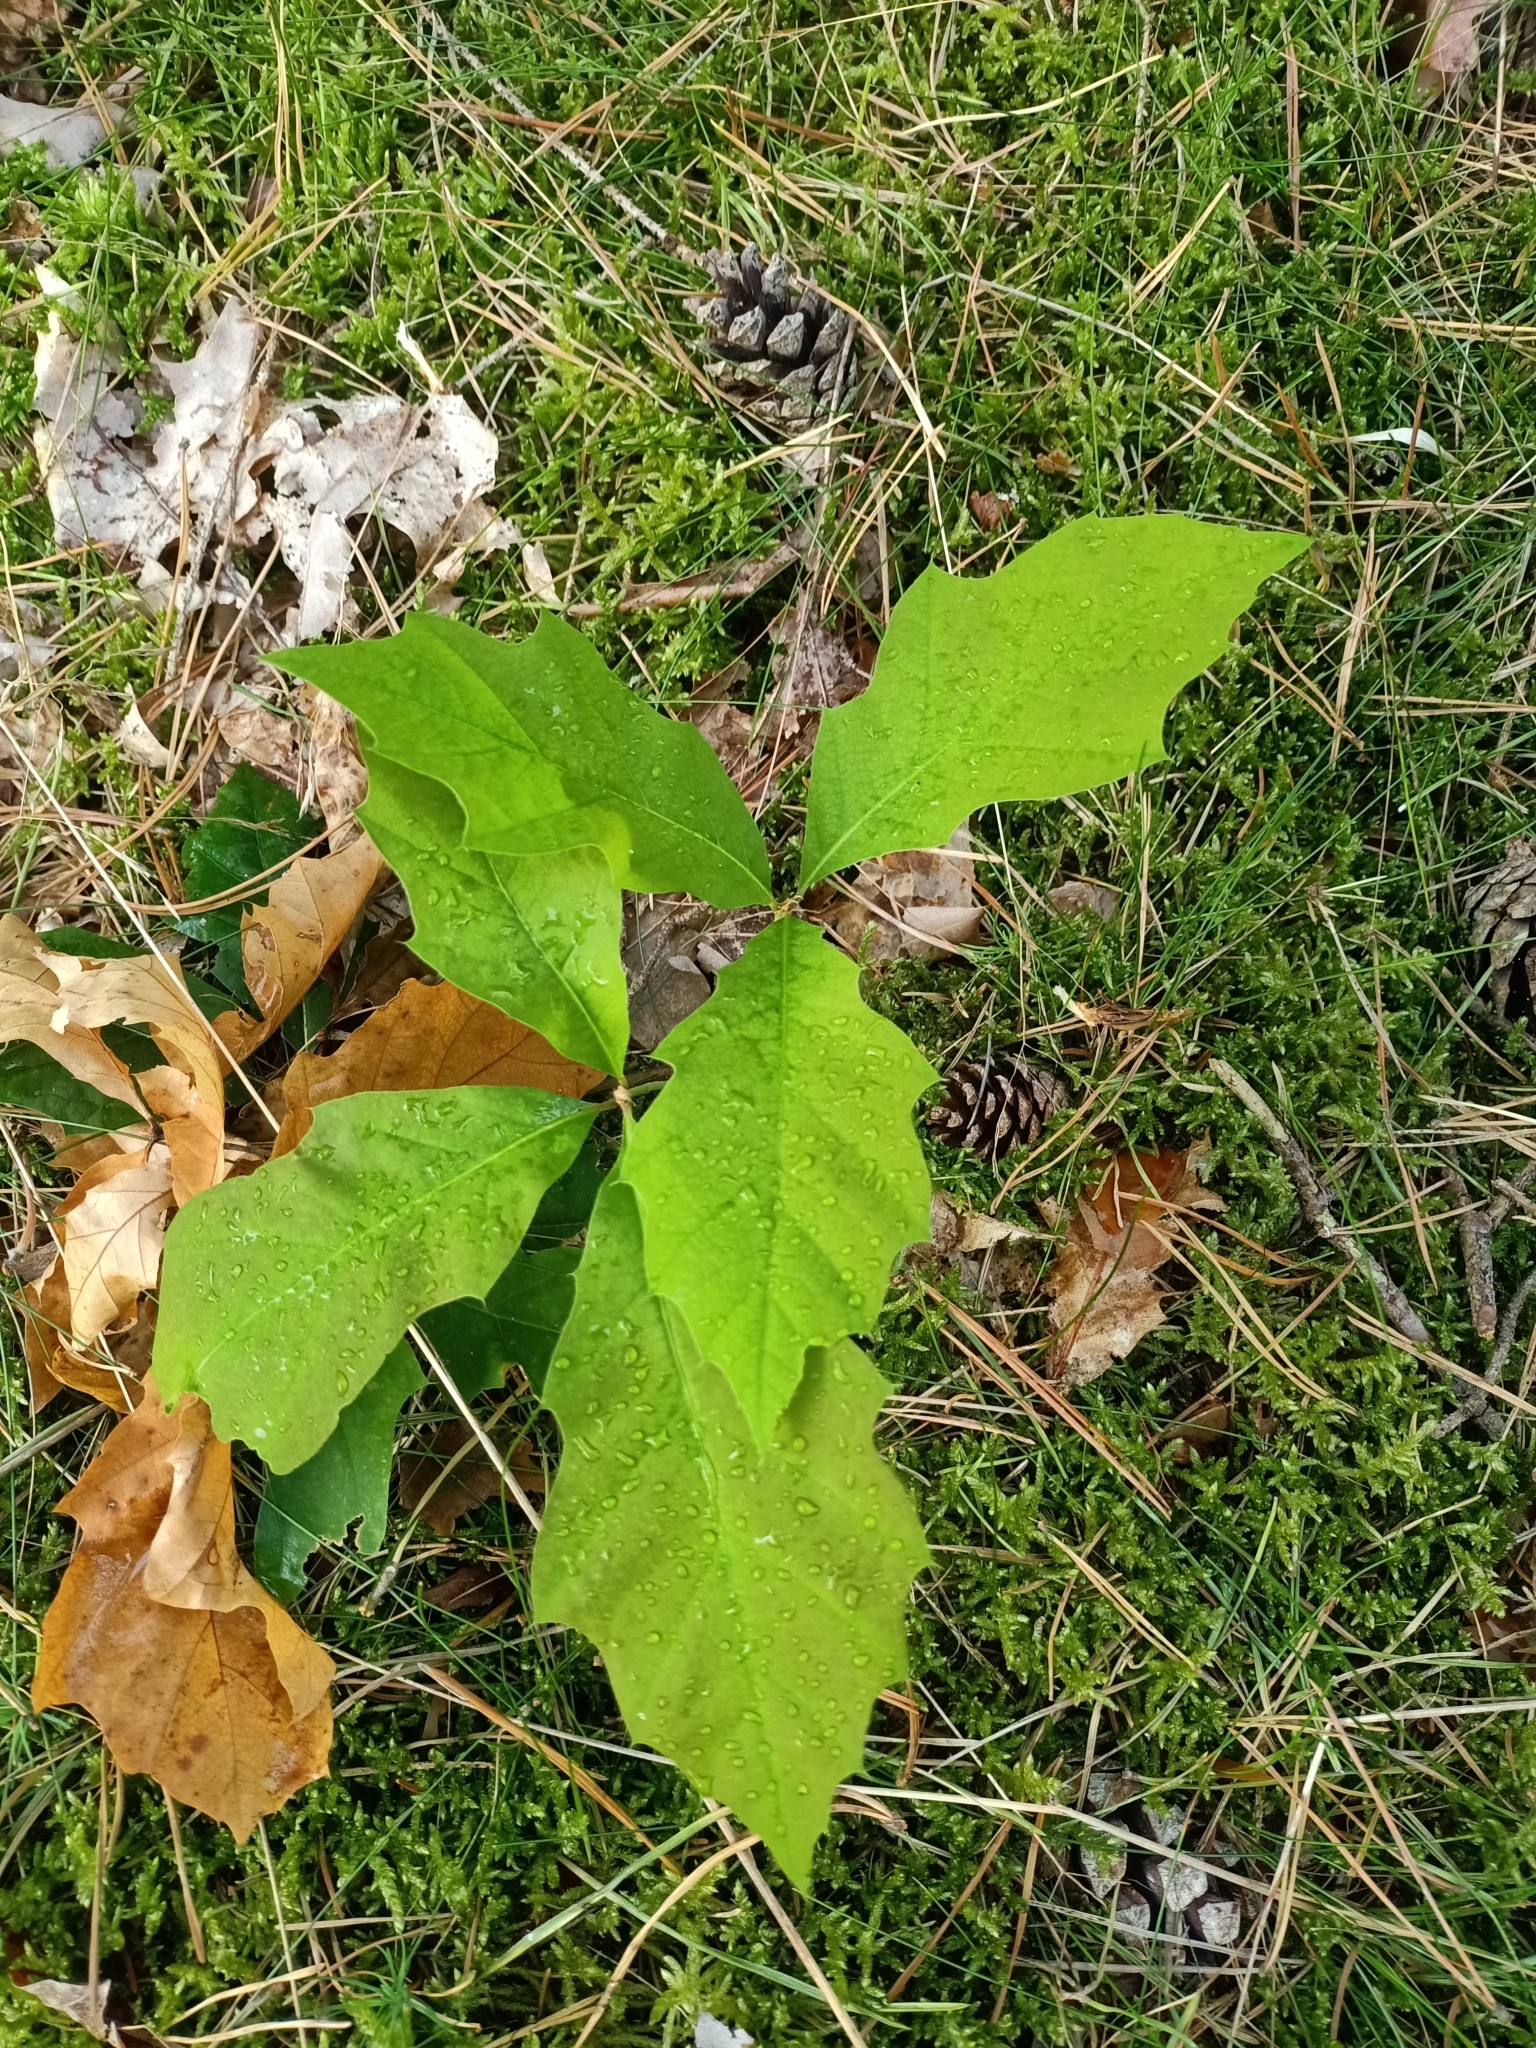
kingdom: Plantae
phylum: Tracheophyta
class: Magnoliopsida
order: Fagales
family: Fagaceae
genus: Quercus
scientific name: Quercus rubra
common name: Red oak
